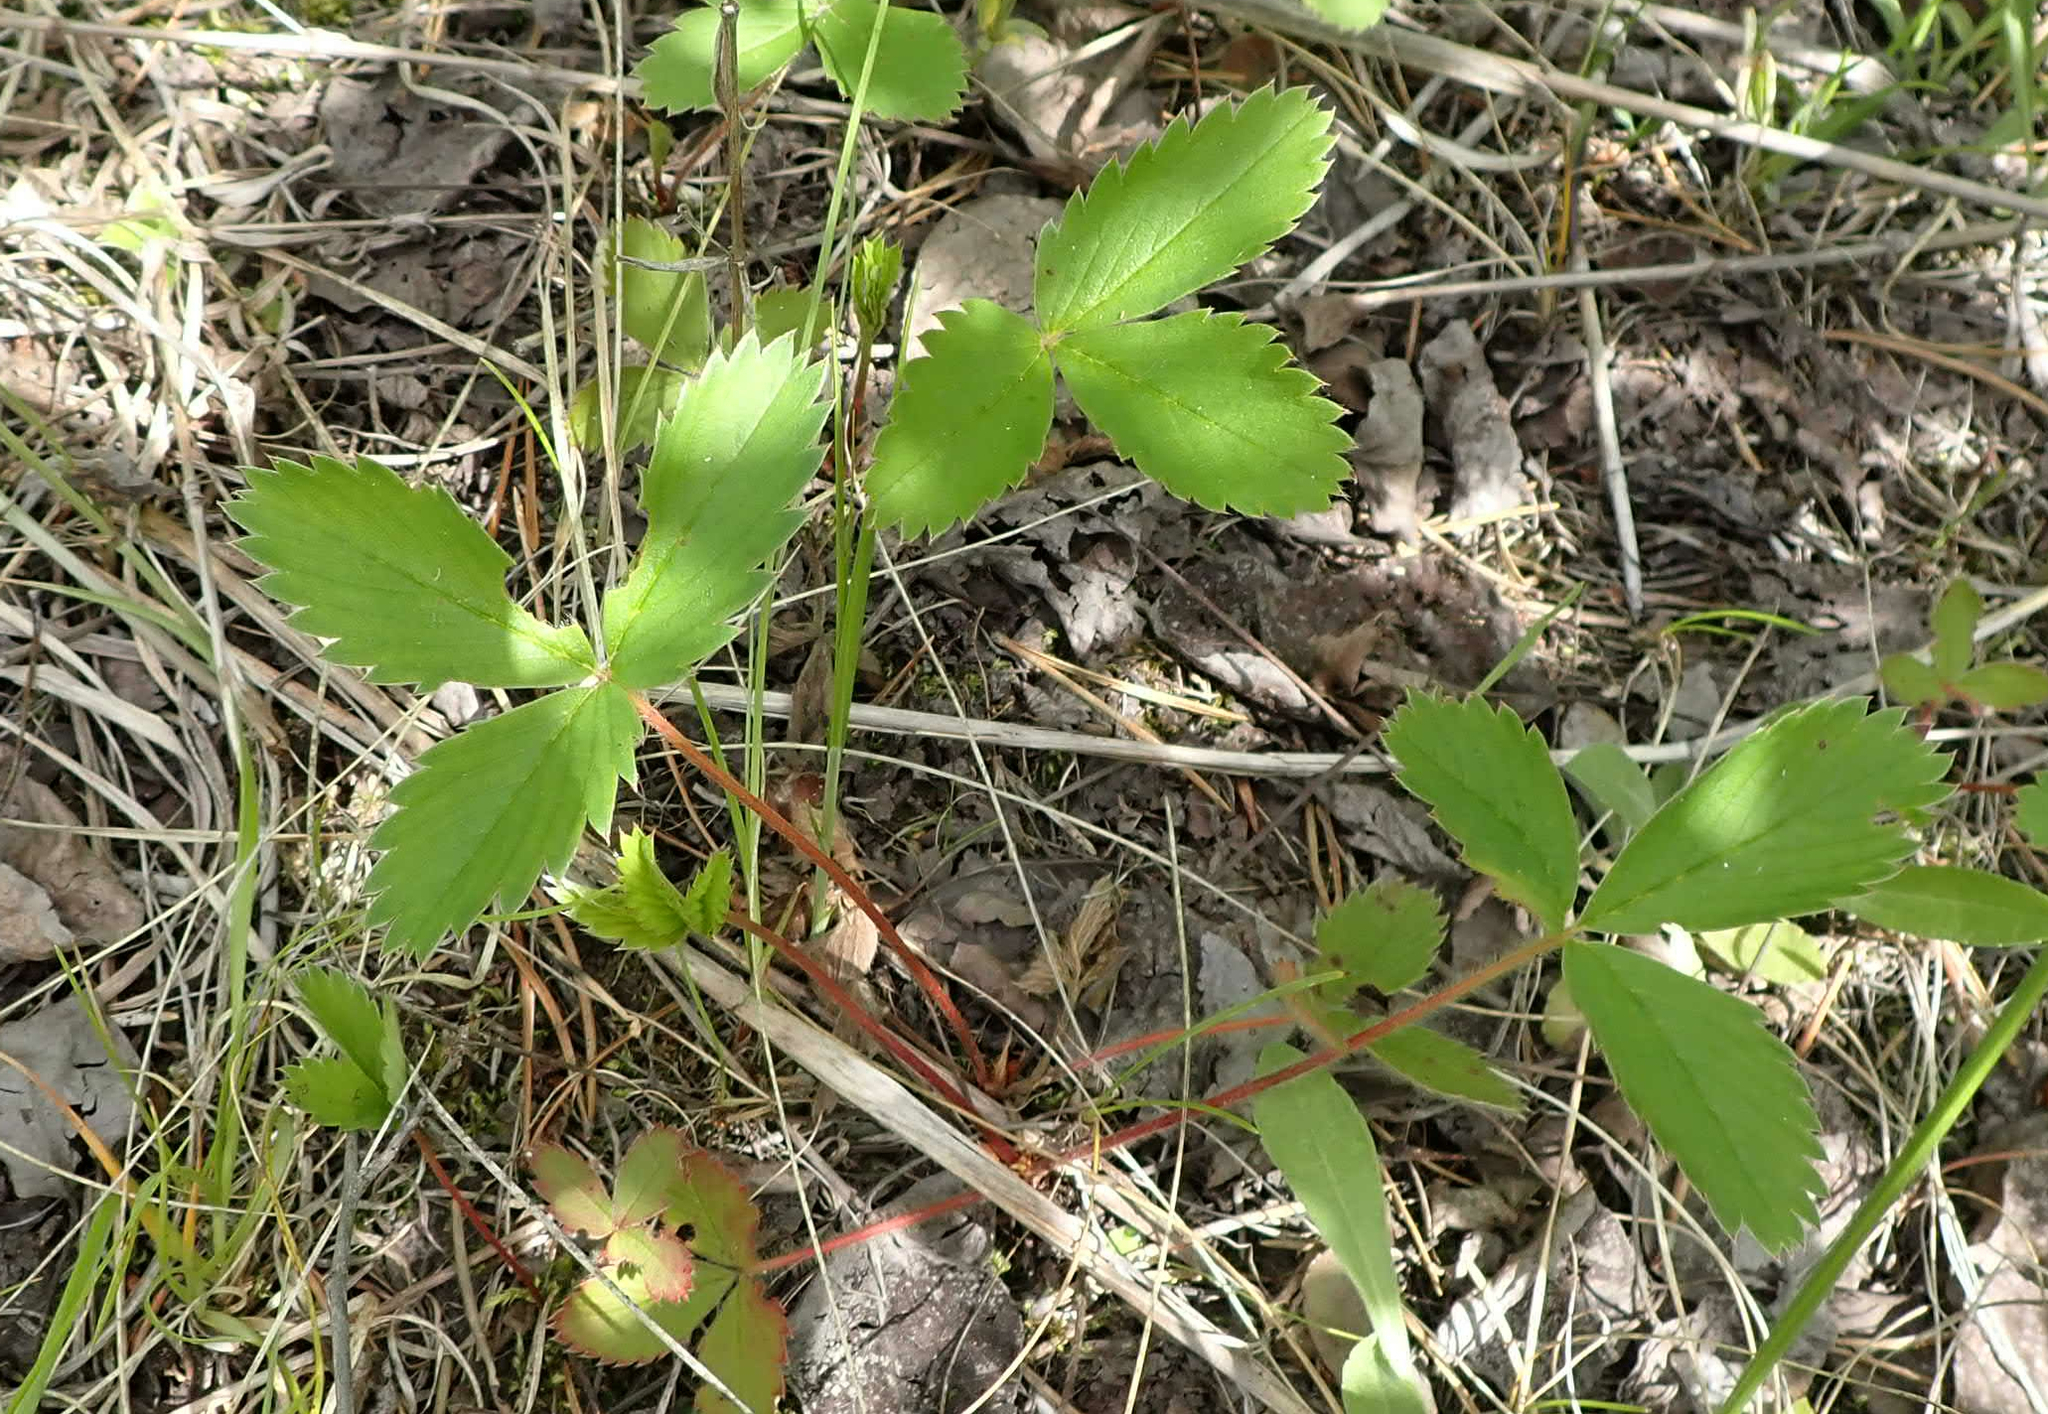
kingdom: Plantae
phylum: Tracheophyta
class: Magnoliopsida
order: Rosales
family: Rosaceae
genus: Fragaria
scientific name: Fragaria virginiana
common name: Thickleaved wild strawberry
